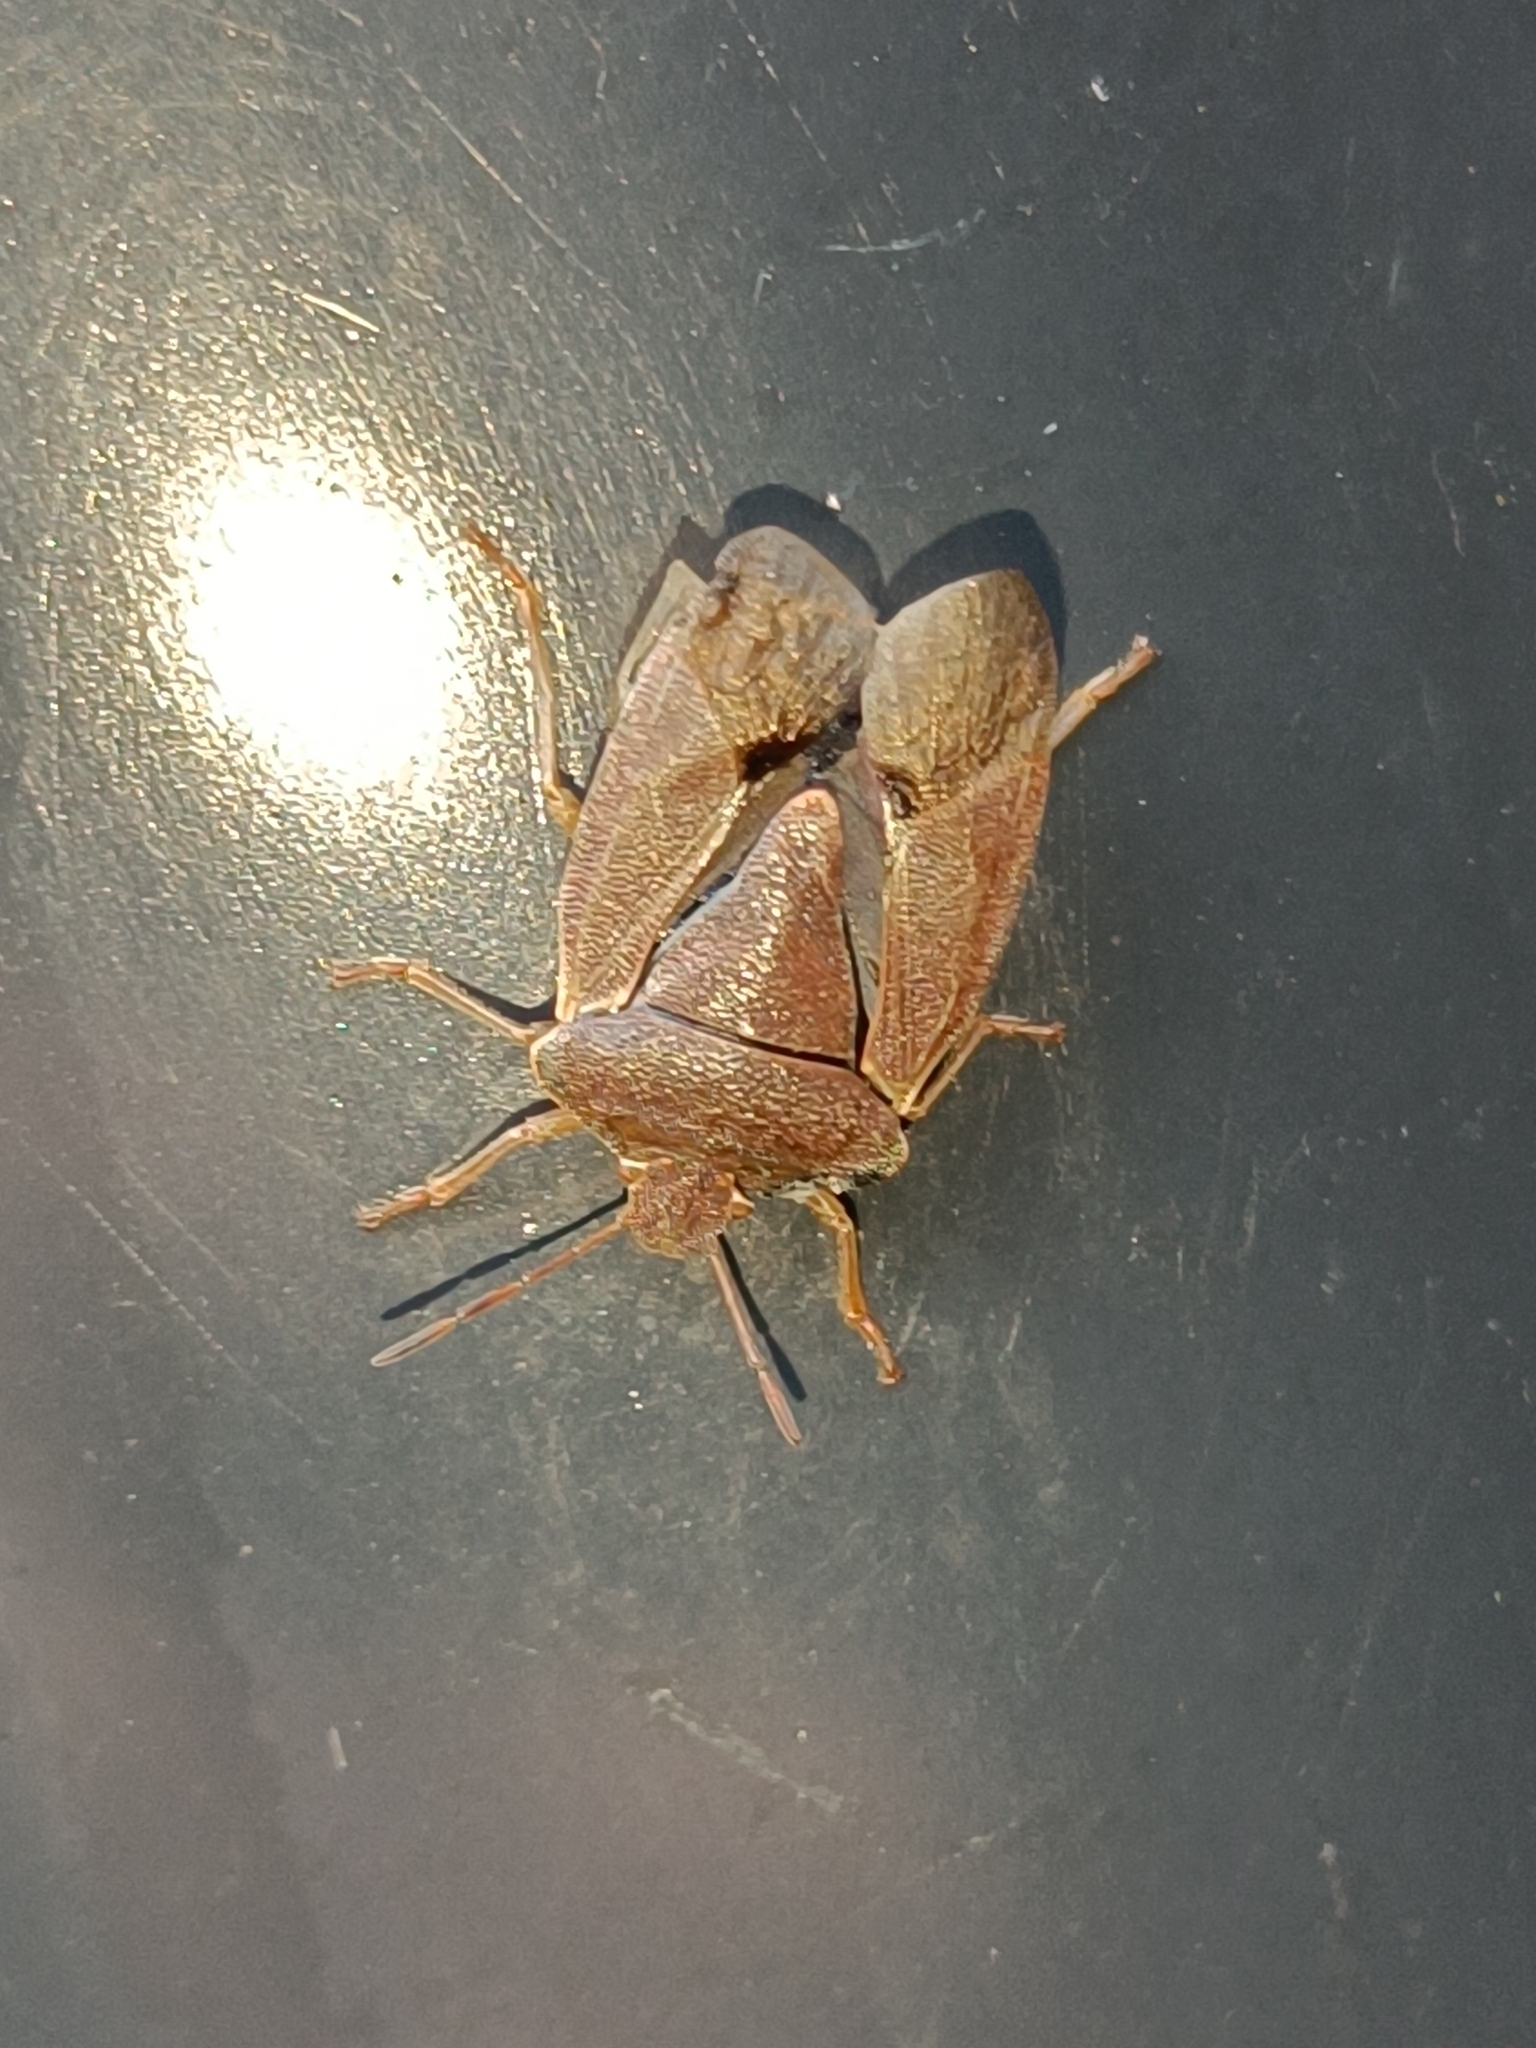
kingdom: Animalia
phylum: Arthropoda
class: Insecta
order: Hemiptera
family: Pentatomidae
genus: Palomena
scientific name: Palomena prasina
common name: Green shieldbug
